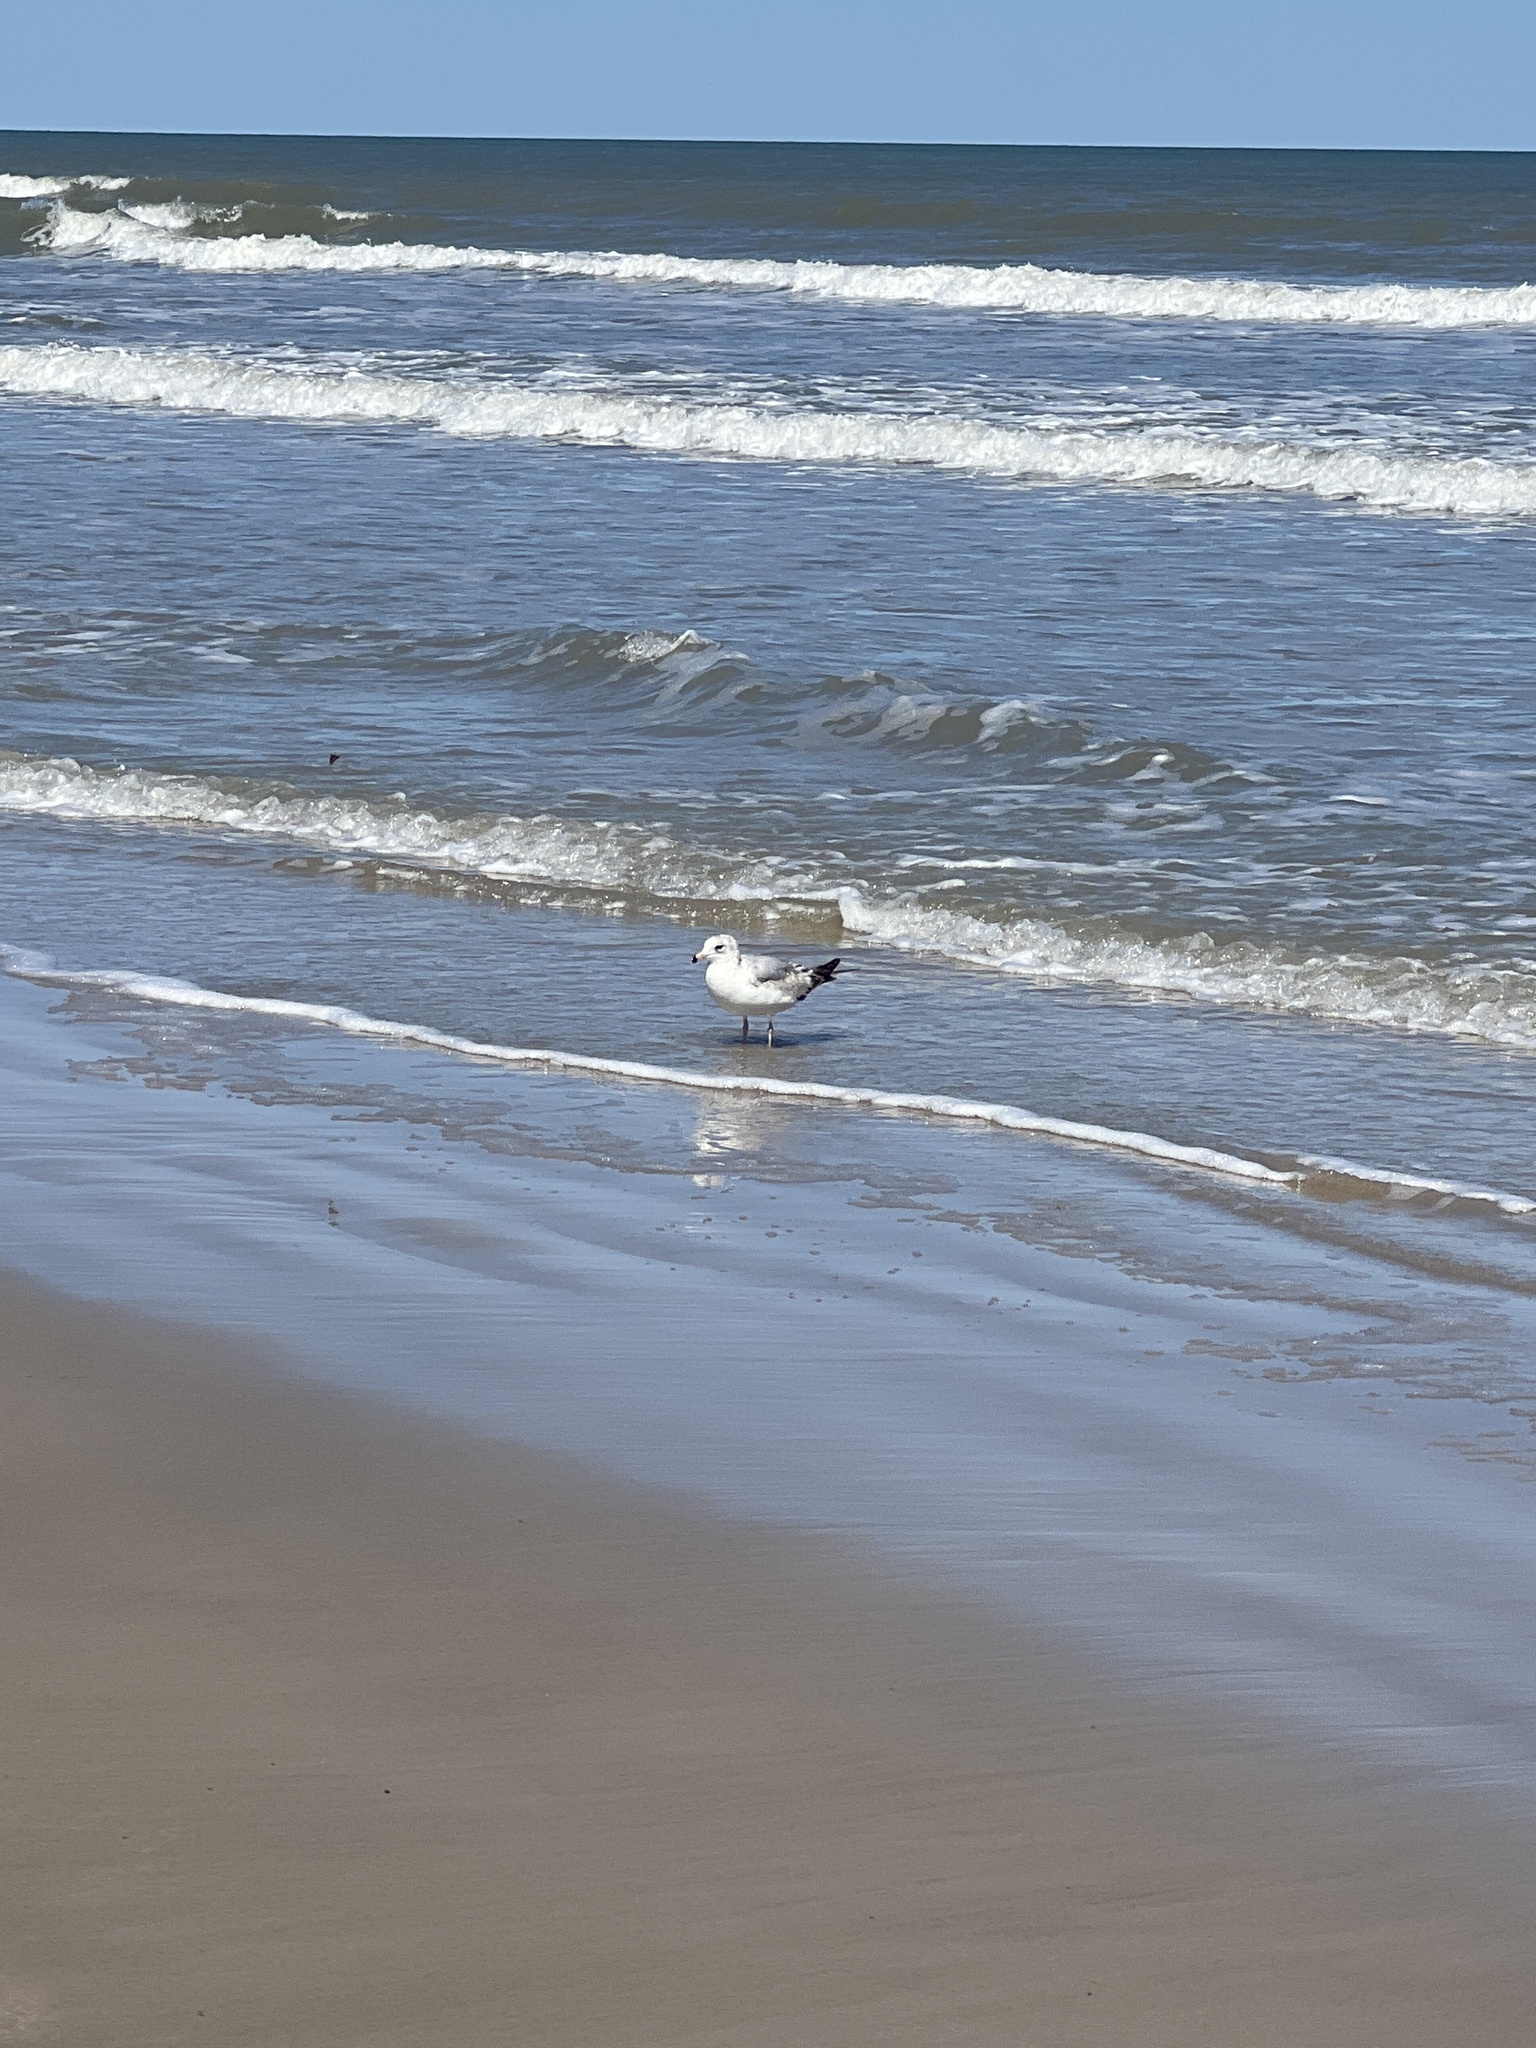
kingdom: Animalia
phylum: Chordata
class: Aves
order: Charadriiformes
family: Laridae
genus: Larus
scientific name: Larus delawarensis
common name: Ring-billed gull
